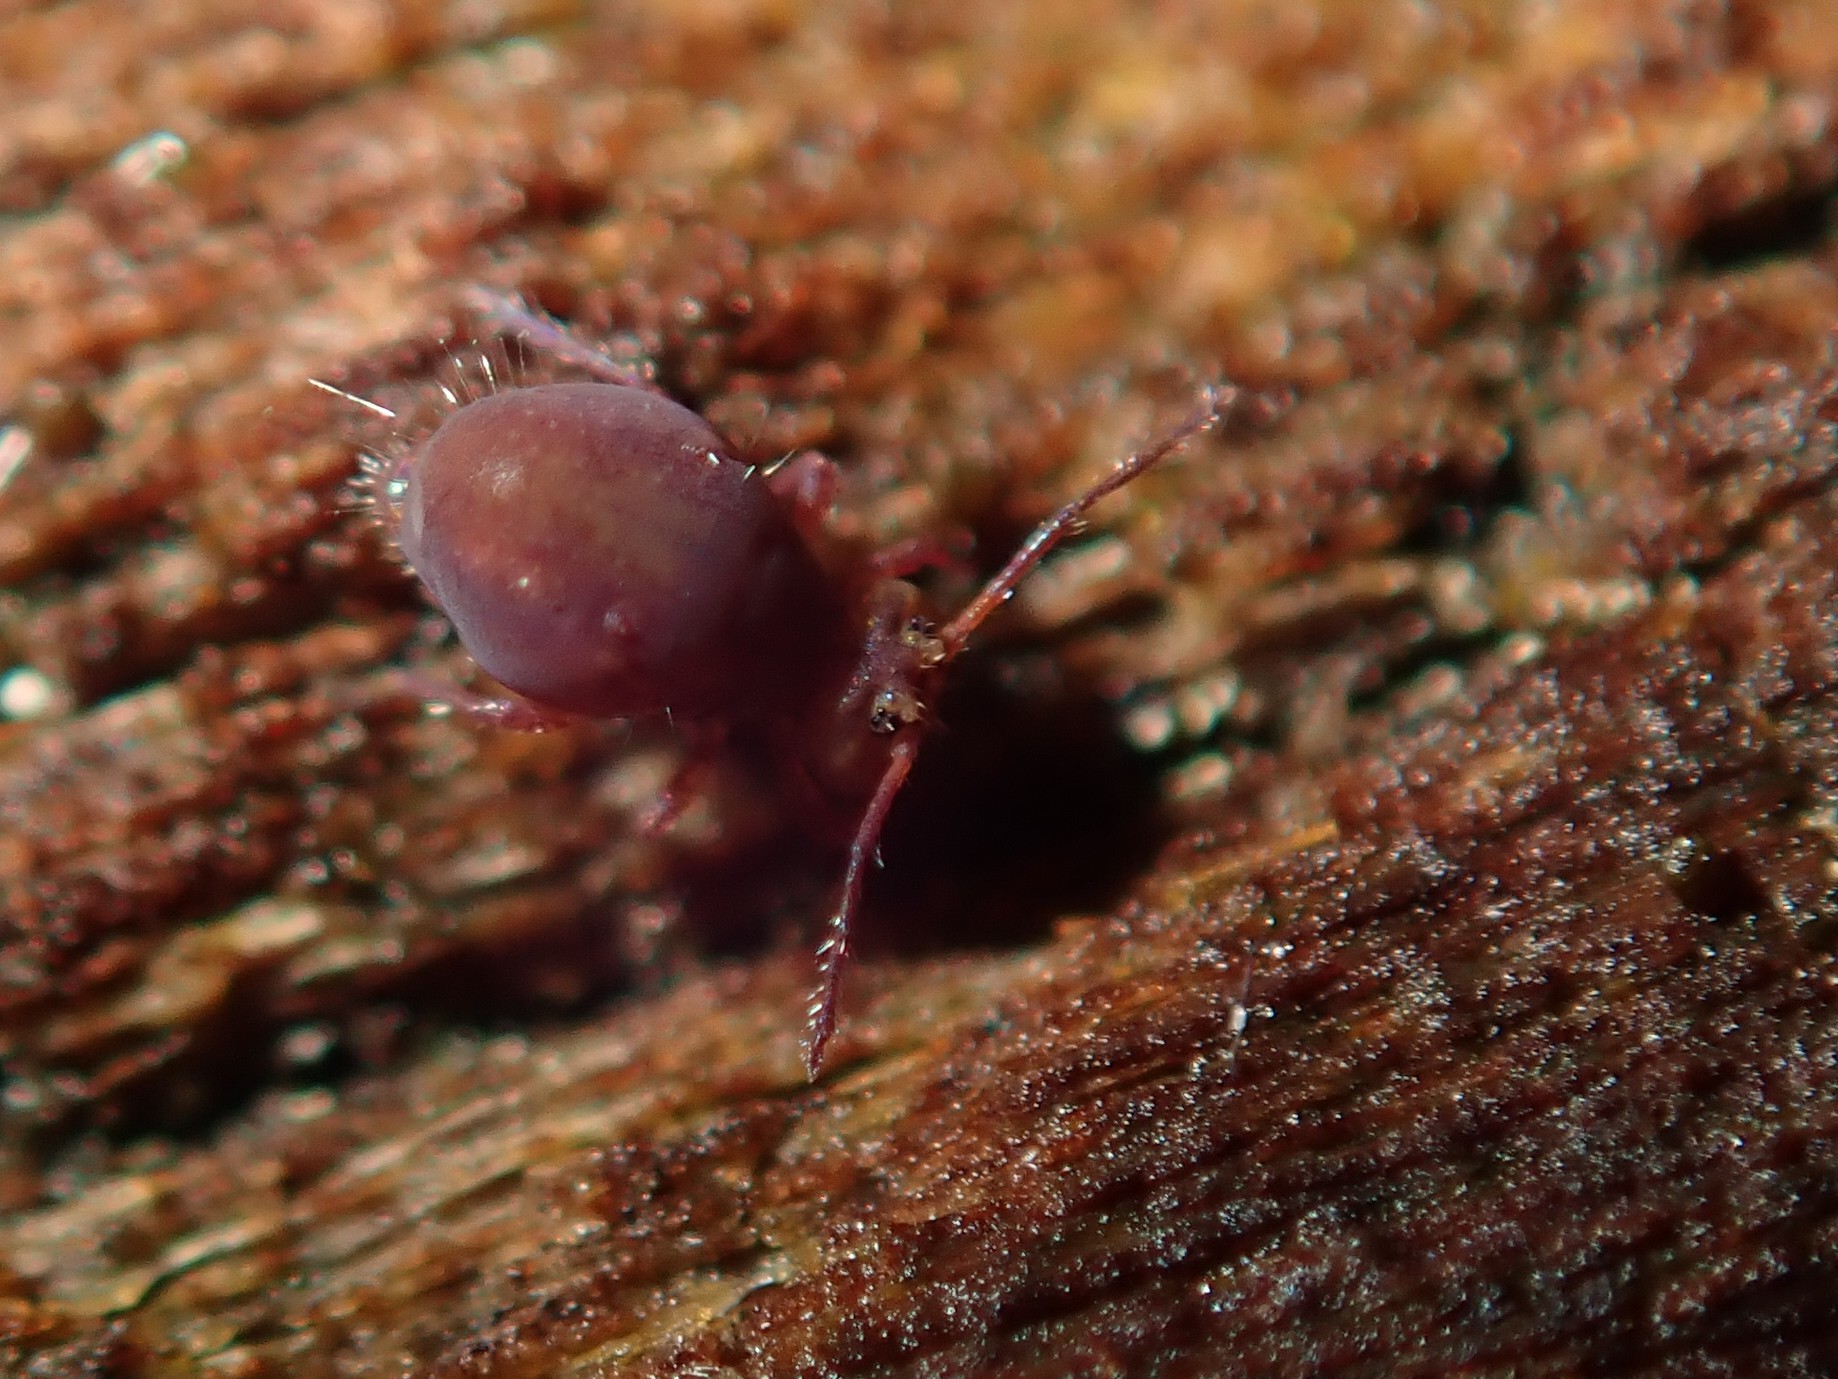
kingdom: Animalia
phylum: Arthropoda
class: Collembola
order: Symphypleona
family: Dicyrtomidae
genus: Dicyrtoma
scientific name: Dicyrtoma fusca
